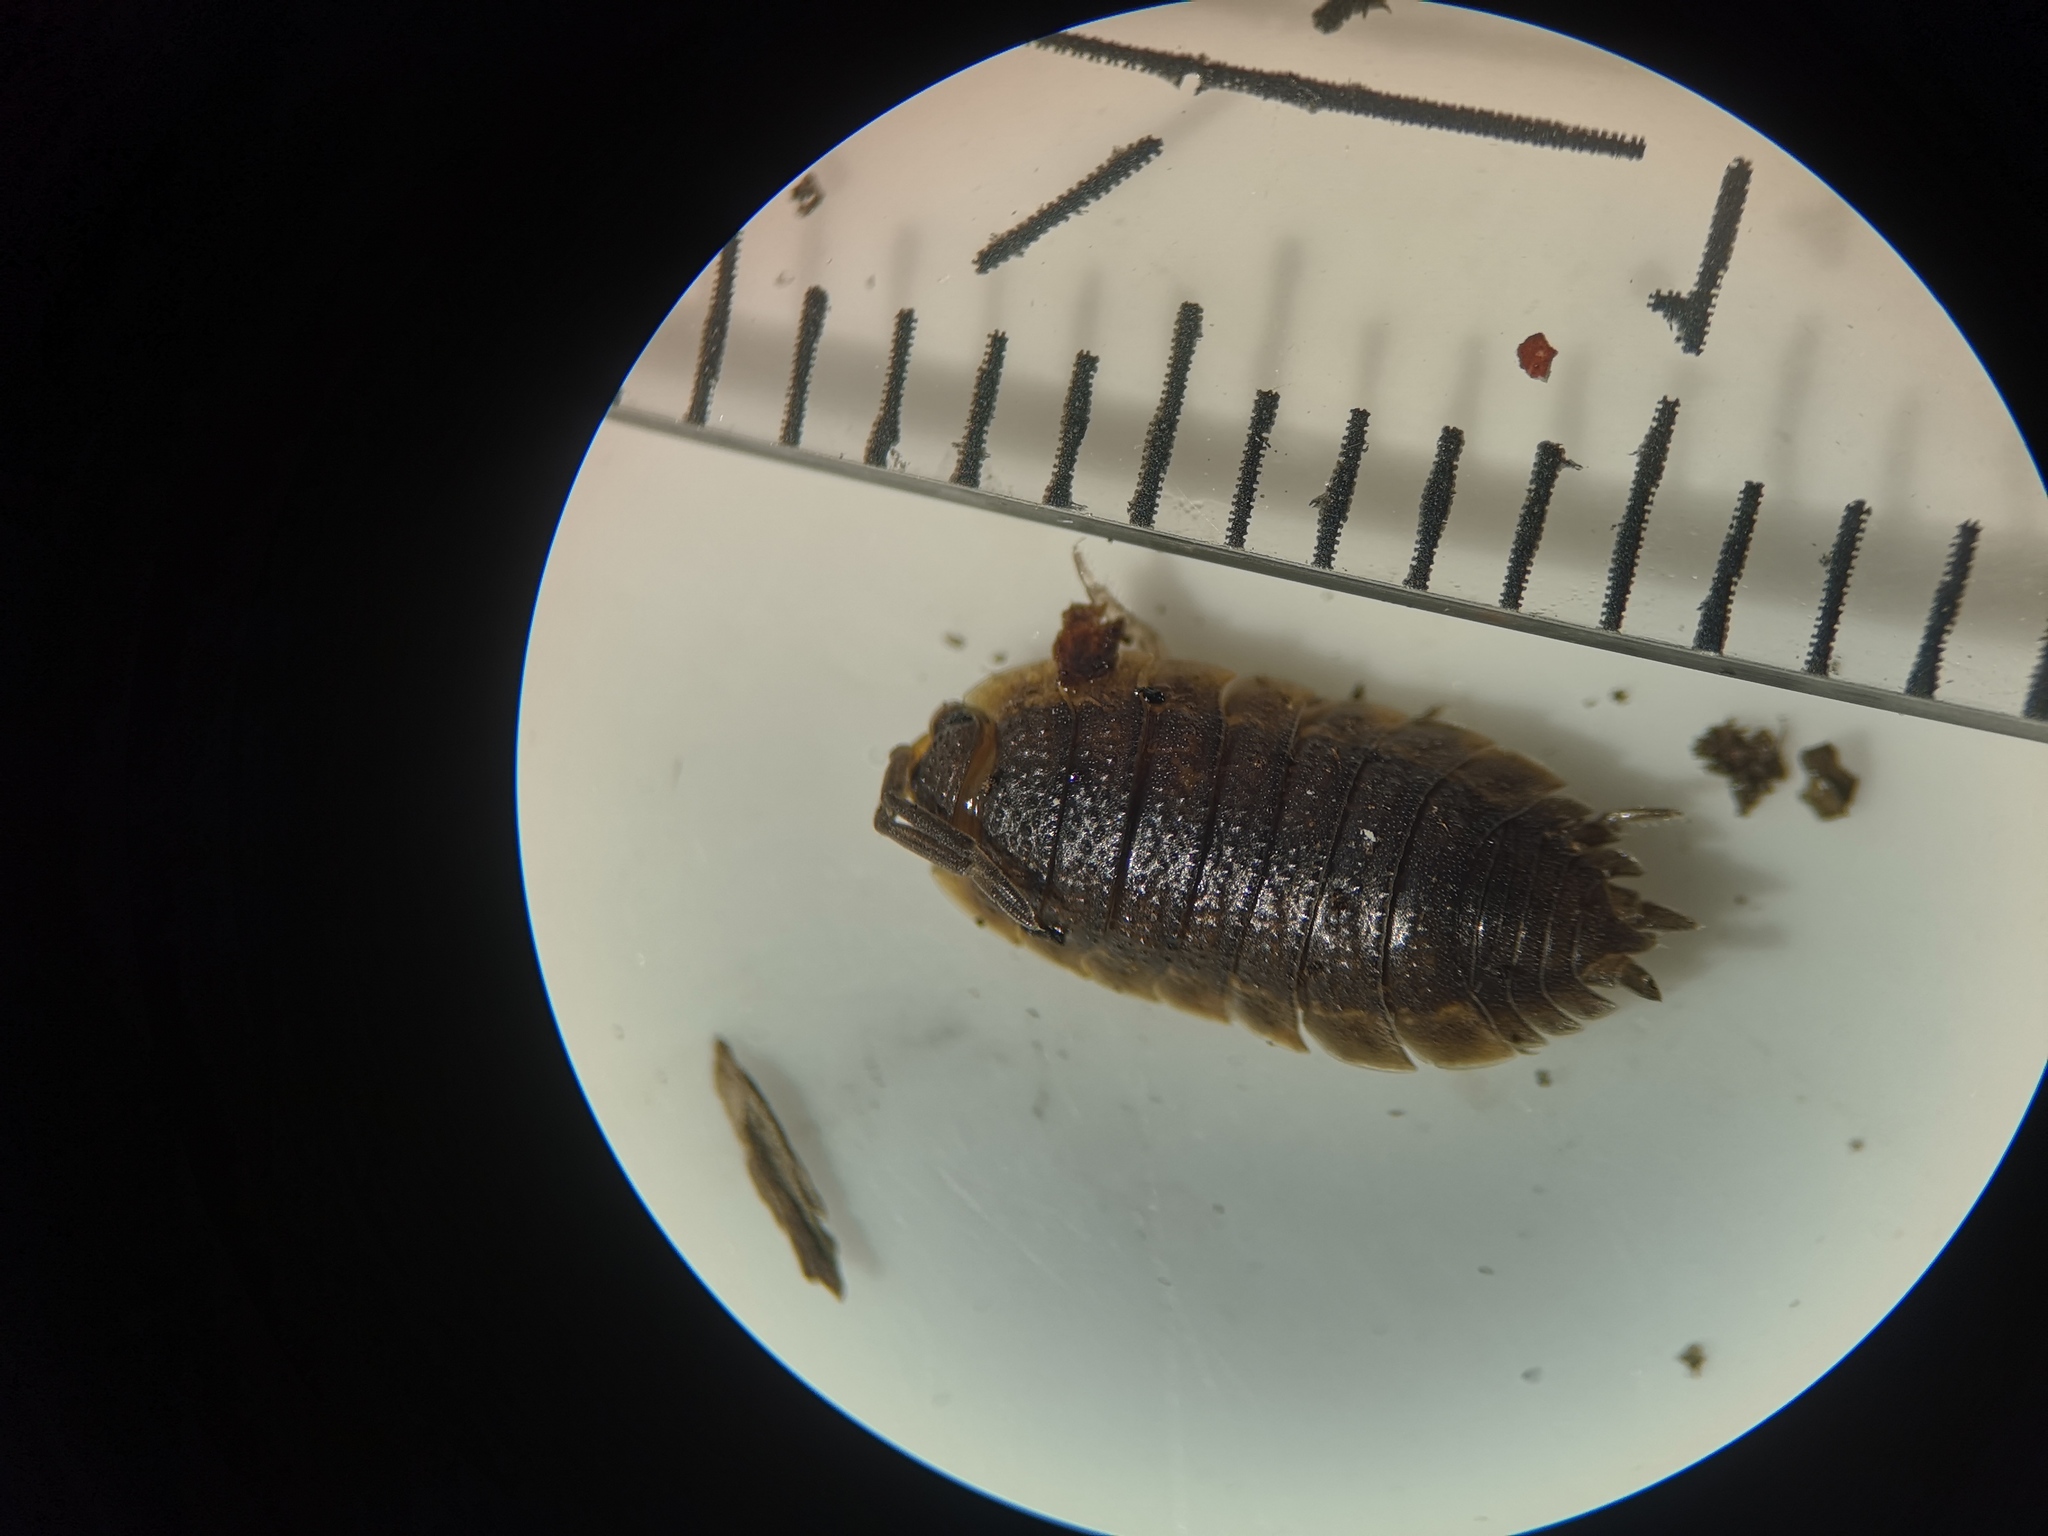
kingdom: Animalia
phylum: Arthropoda
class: Malacostraca
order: Isopoda
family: Porcellionidae
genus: Porcellio
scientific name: Porcellio scaber
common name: Common rough woodlouse
